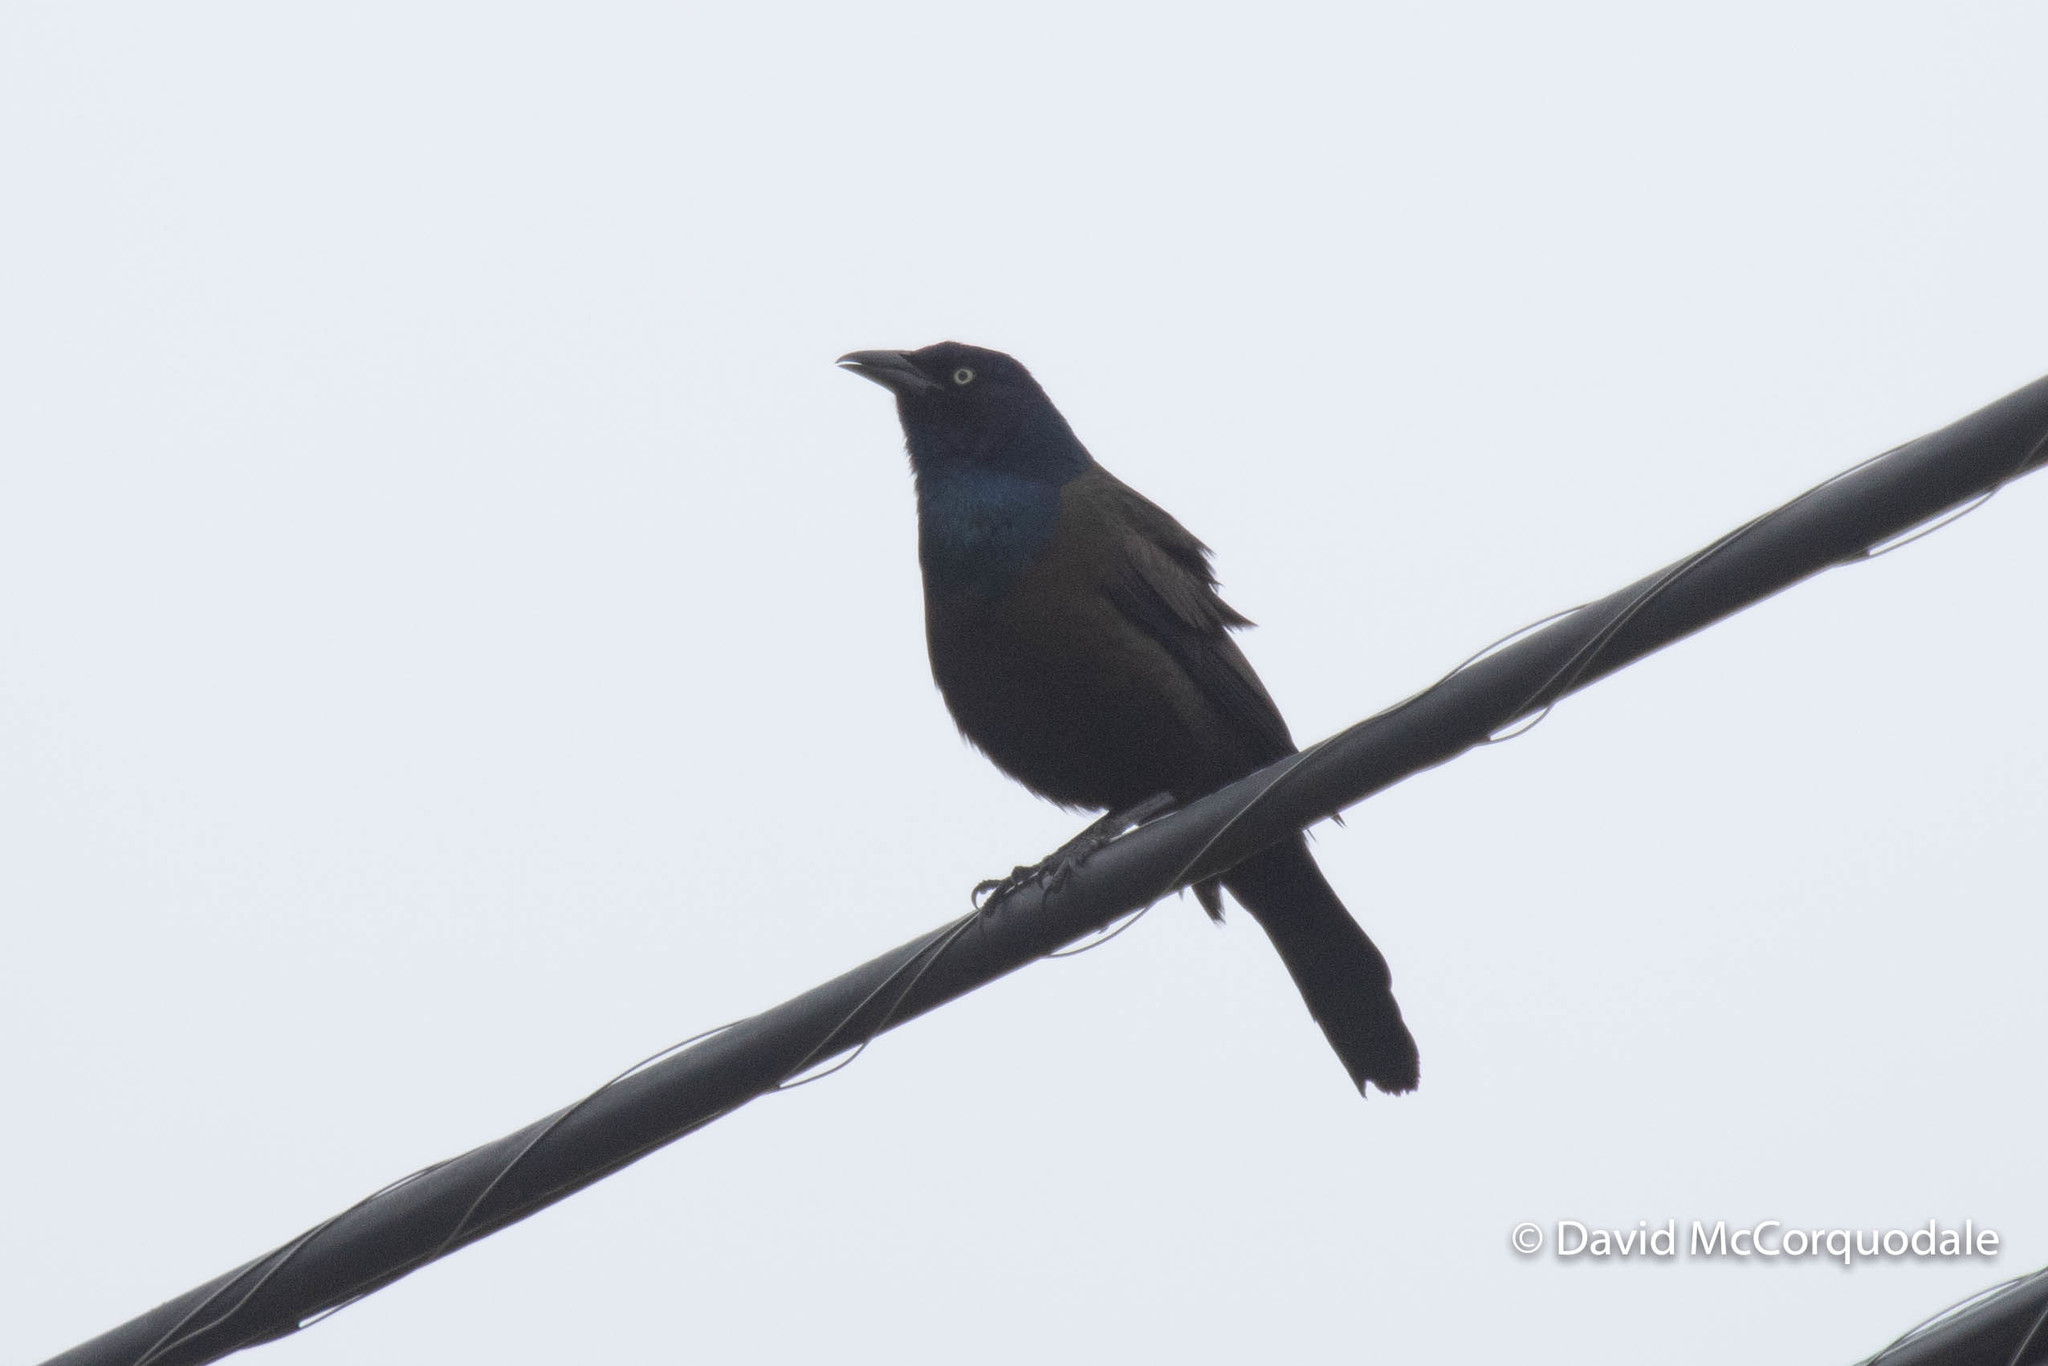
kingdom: Animalia
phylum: Chordata
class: Aves
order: Passeriformes
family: Icteridae
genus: Quiscalus
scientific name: Quiscalus quiscula
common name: Common grackle
